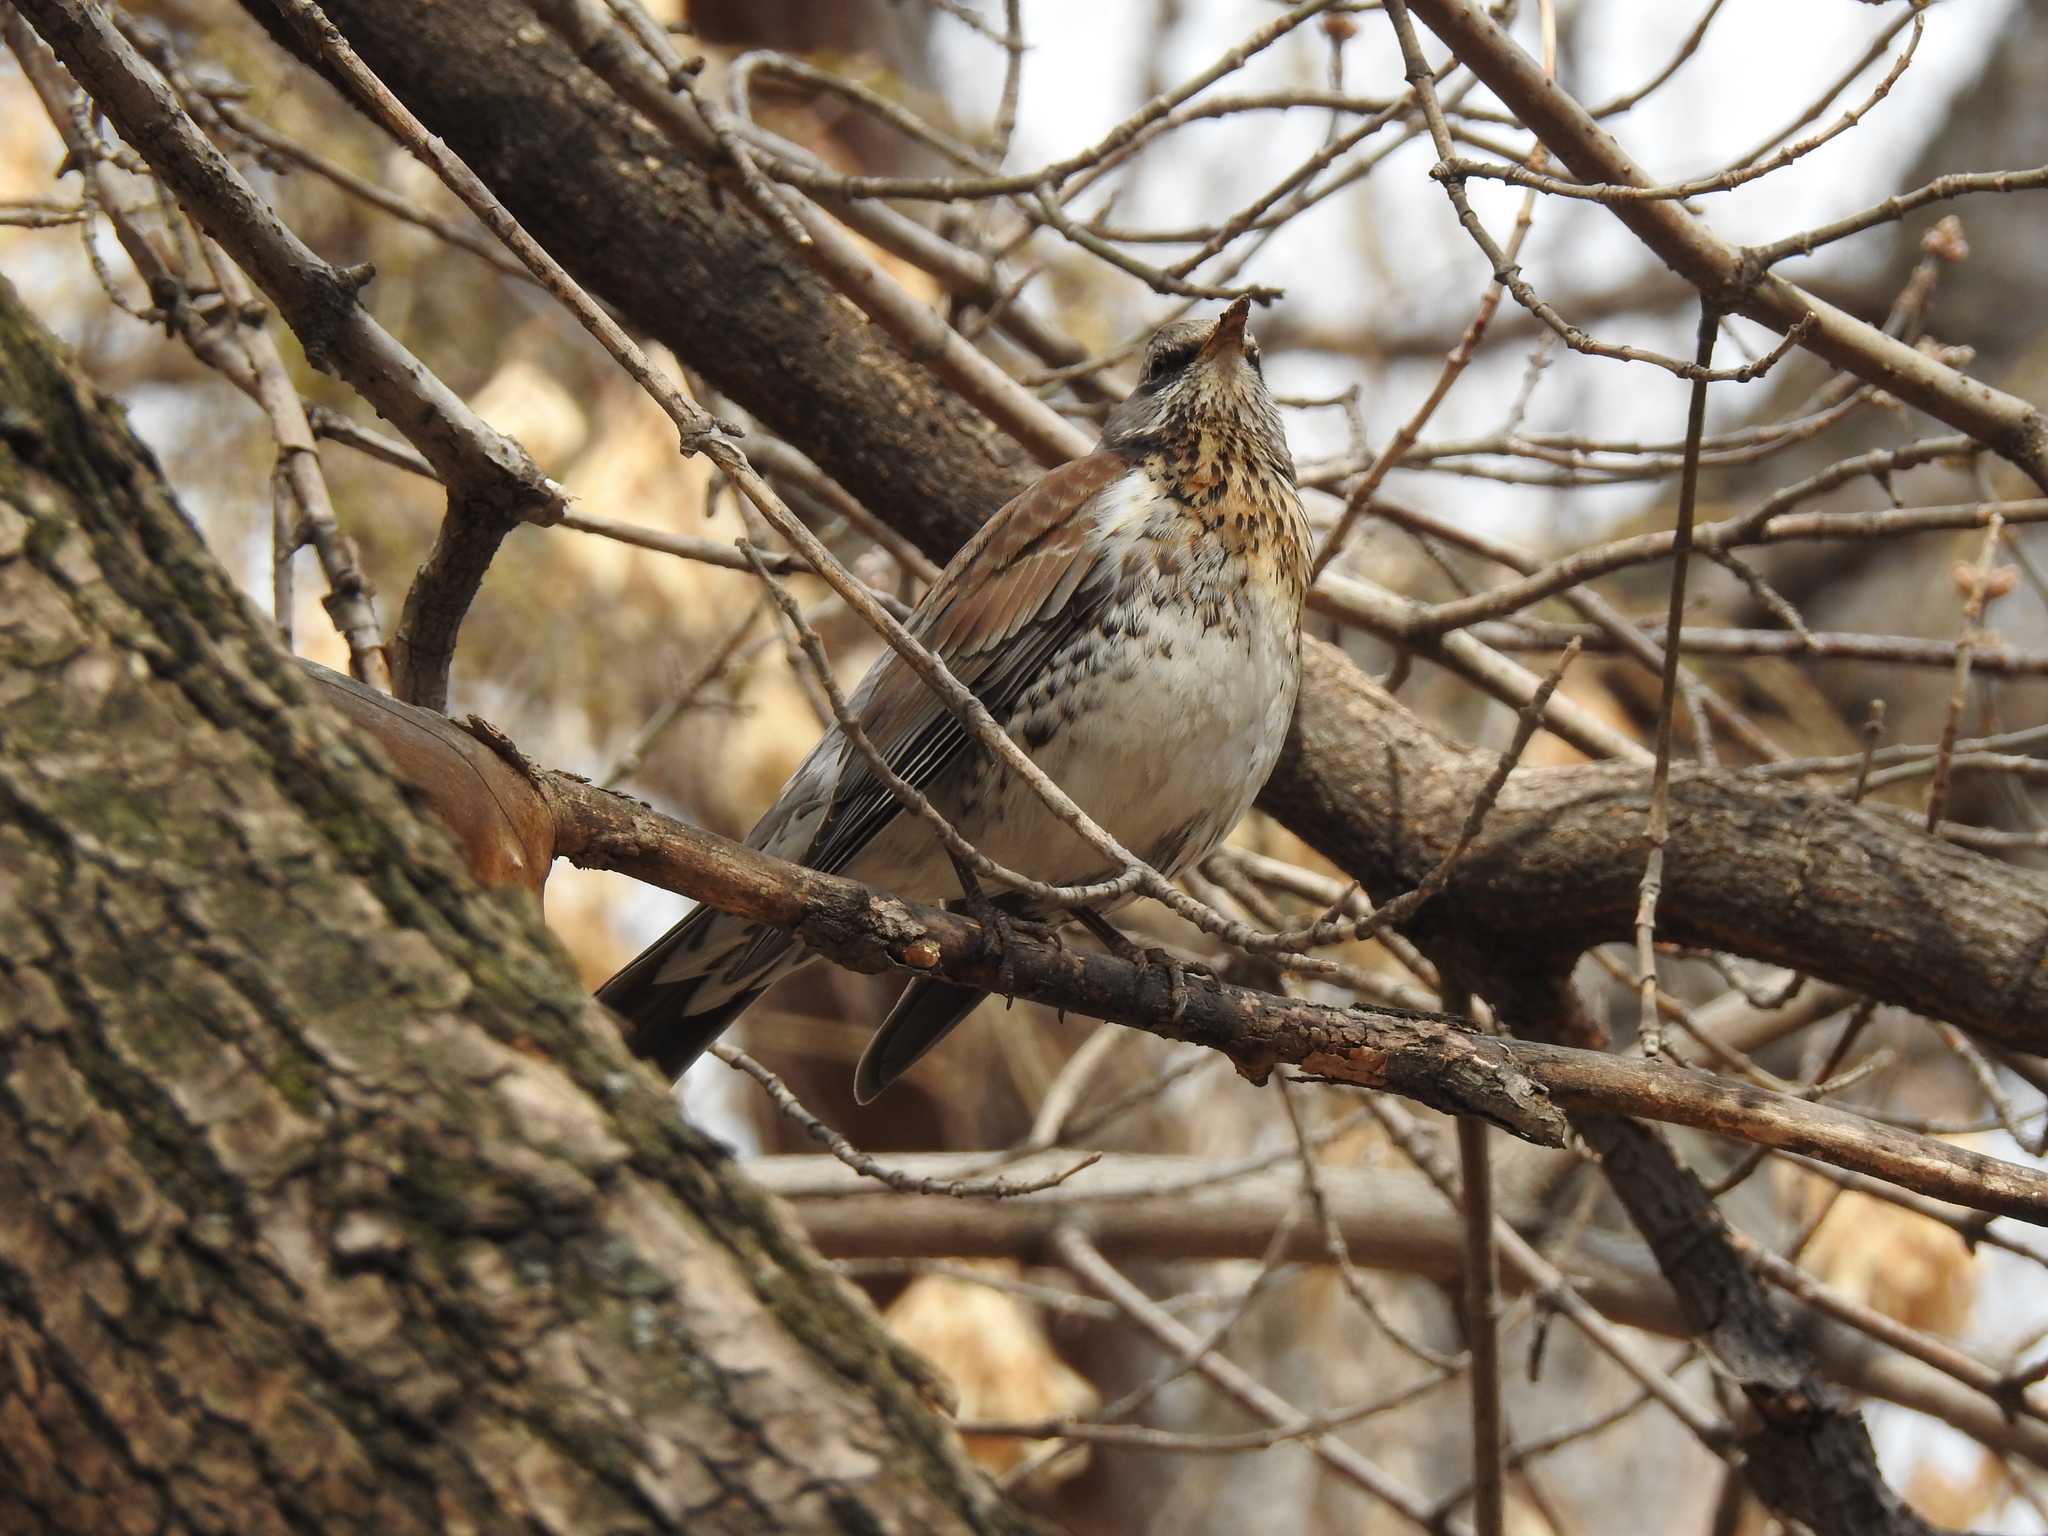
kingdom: Animalia
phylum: Chordata
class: Aves
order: Passeriformes
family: Turdidae
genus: Turdus
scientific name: Turdus pilaris
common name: Fieldfare
